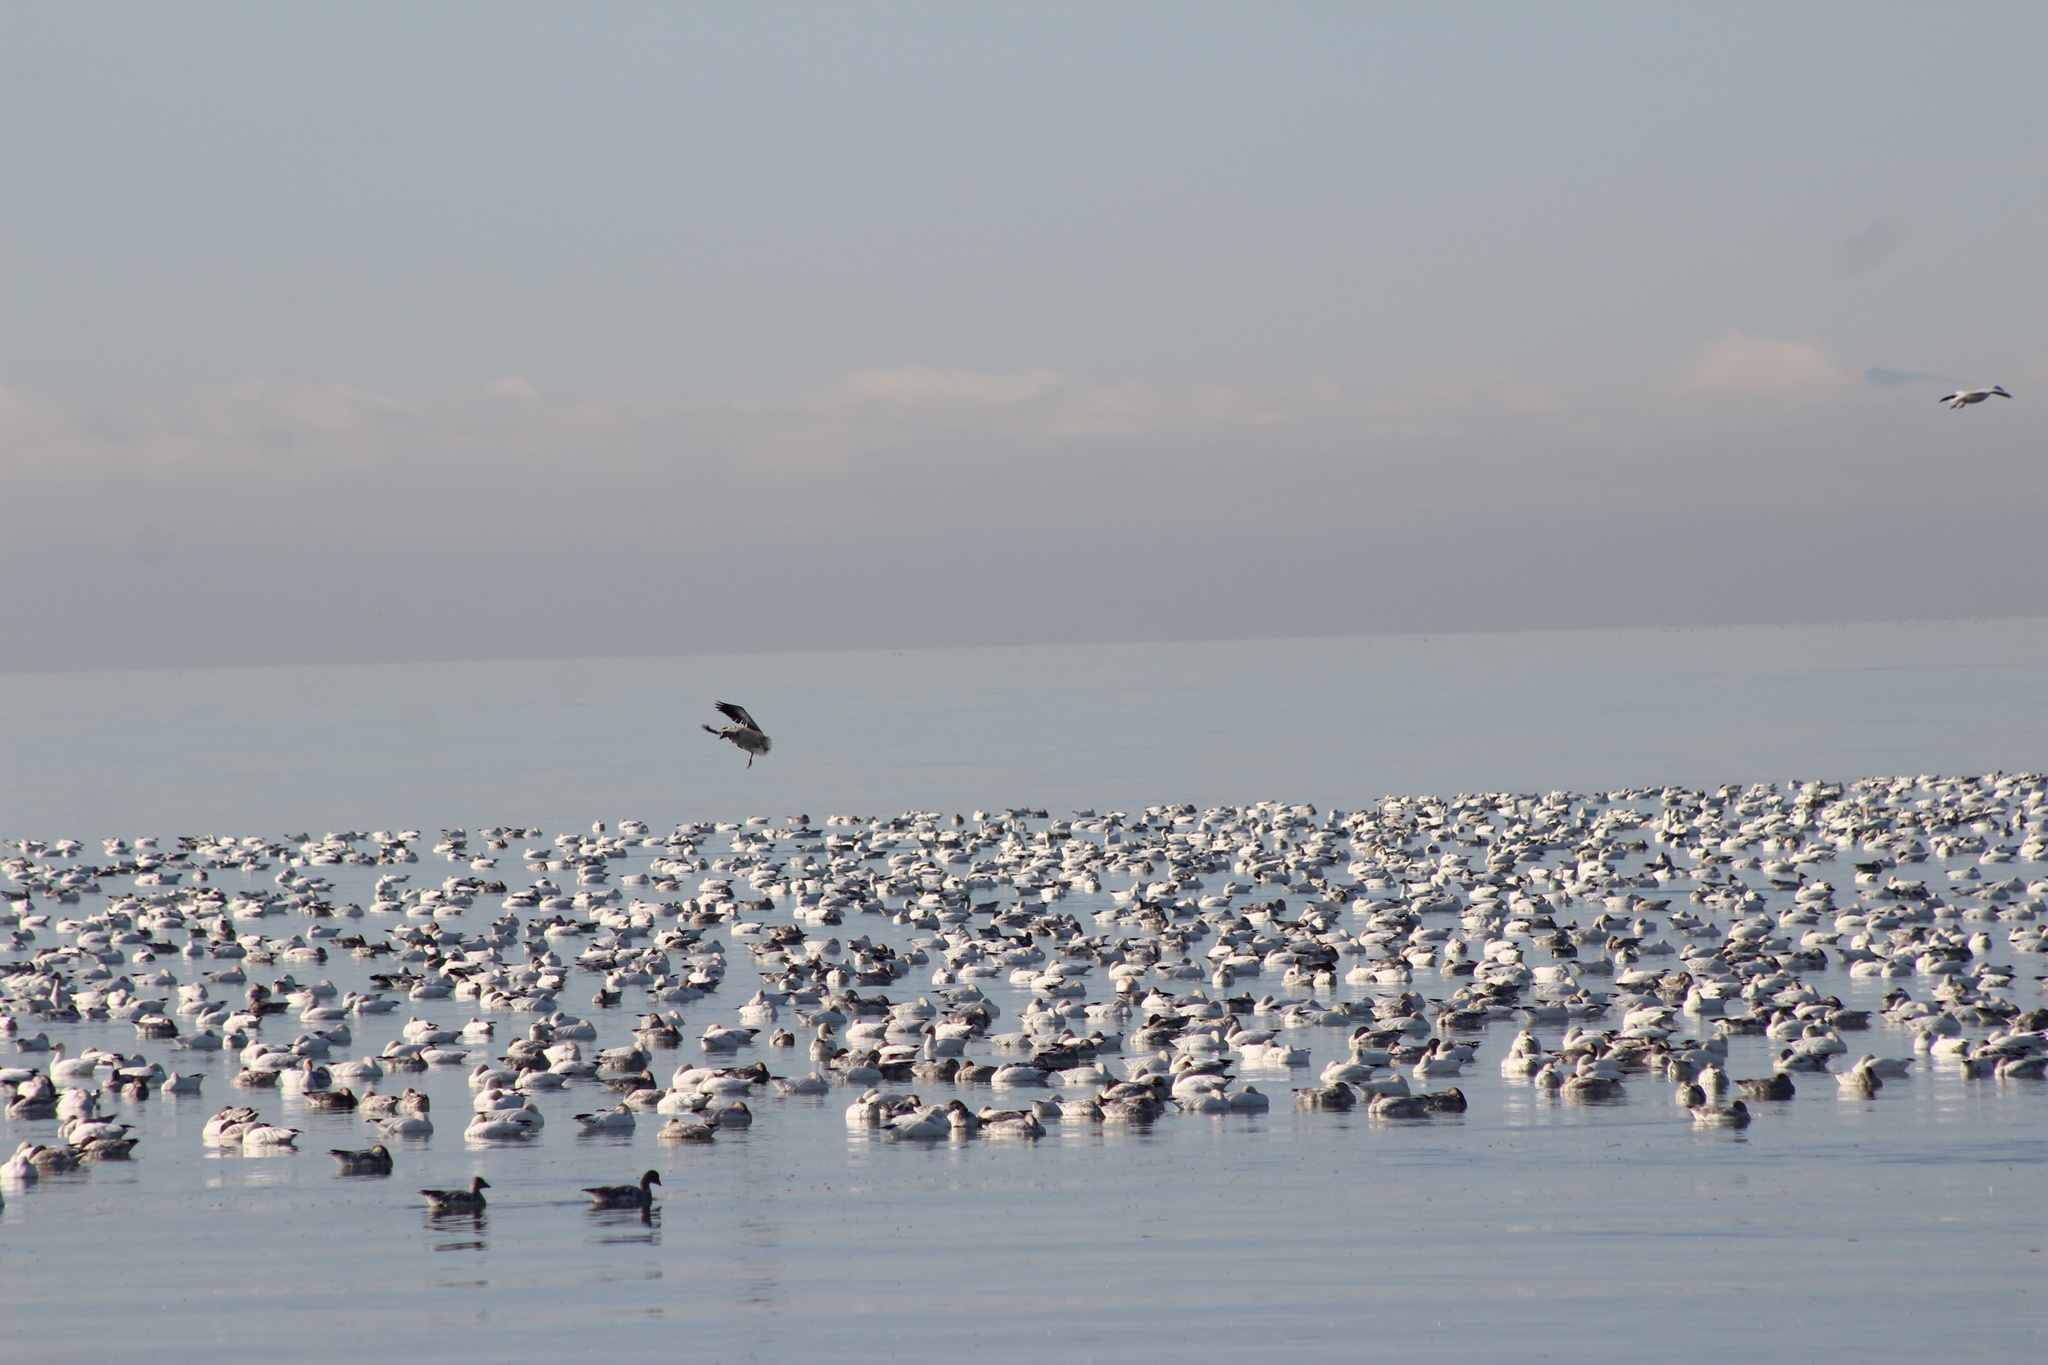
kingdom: Animalia
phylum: Chordata
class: Aves
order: Anseriformes
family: Anatidae
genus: Anser
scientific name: Anser caerulescens
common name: Snow goose
